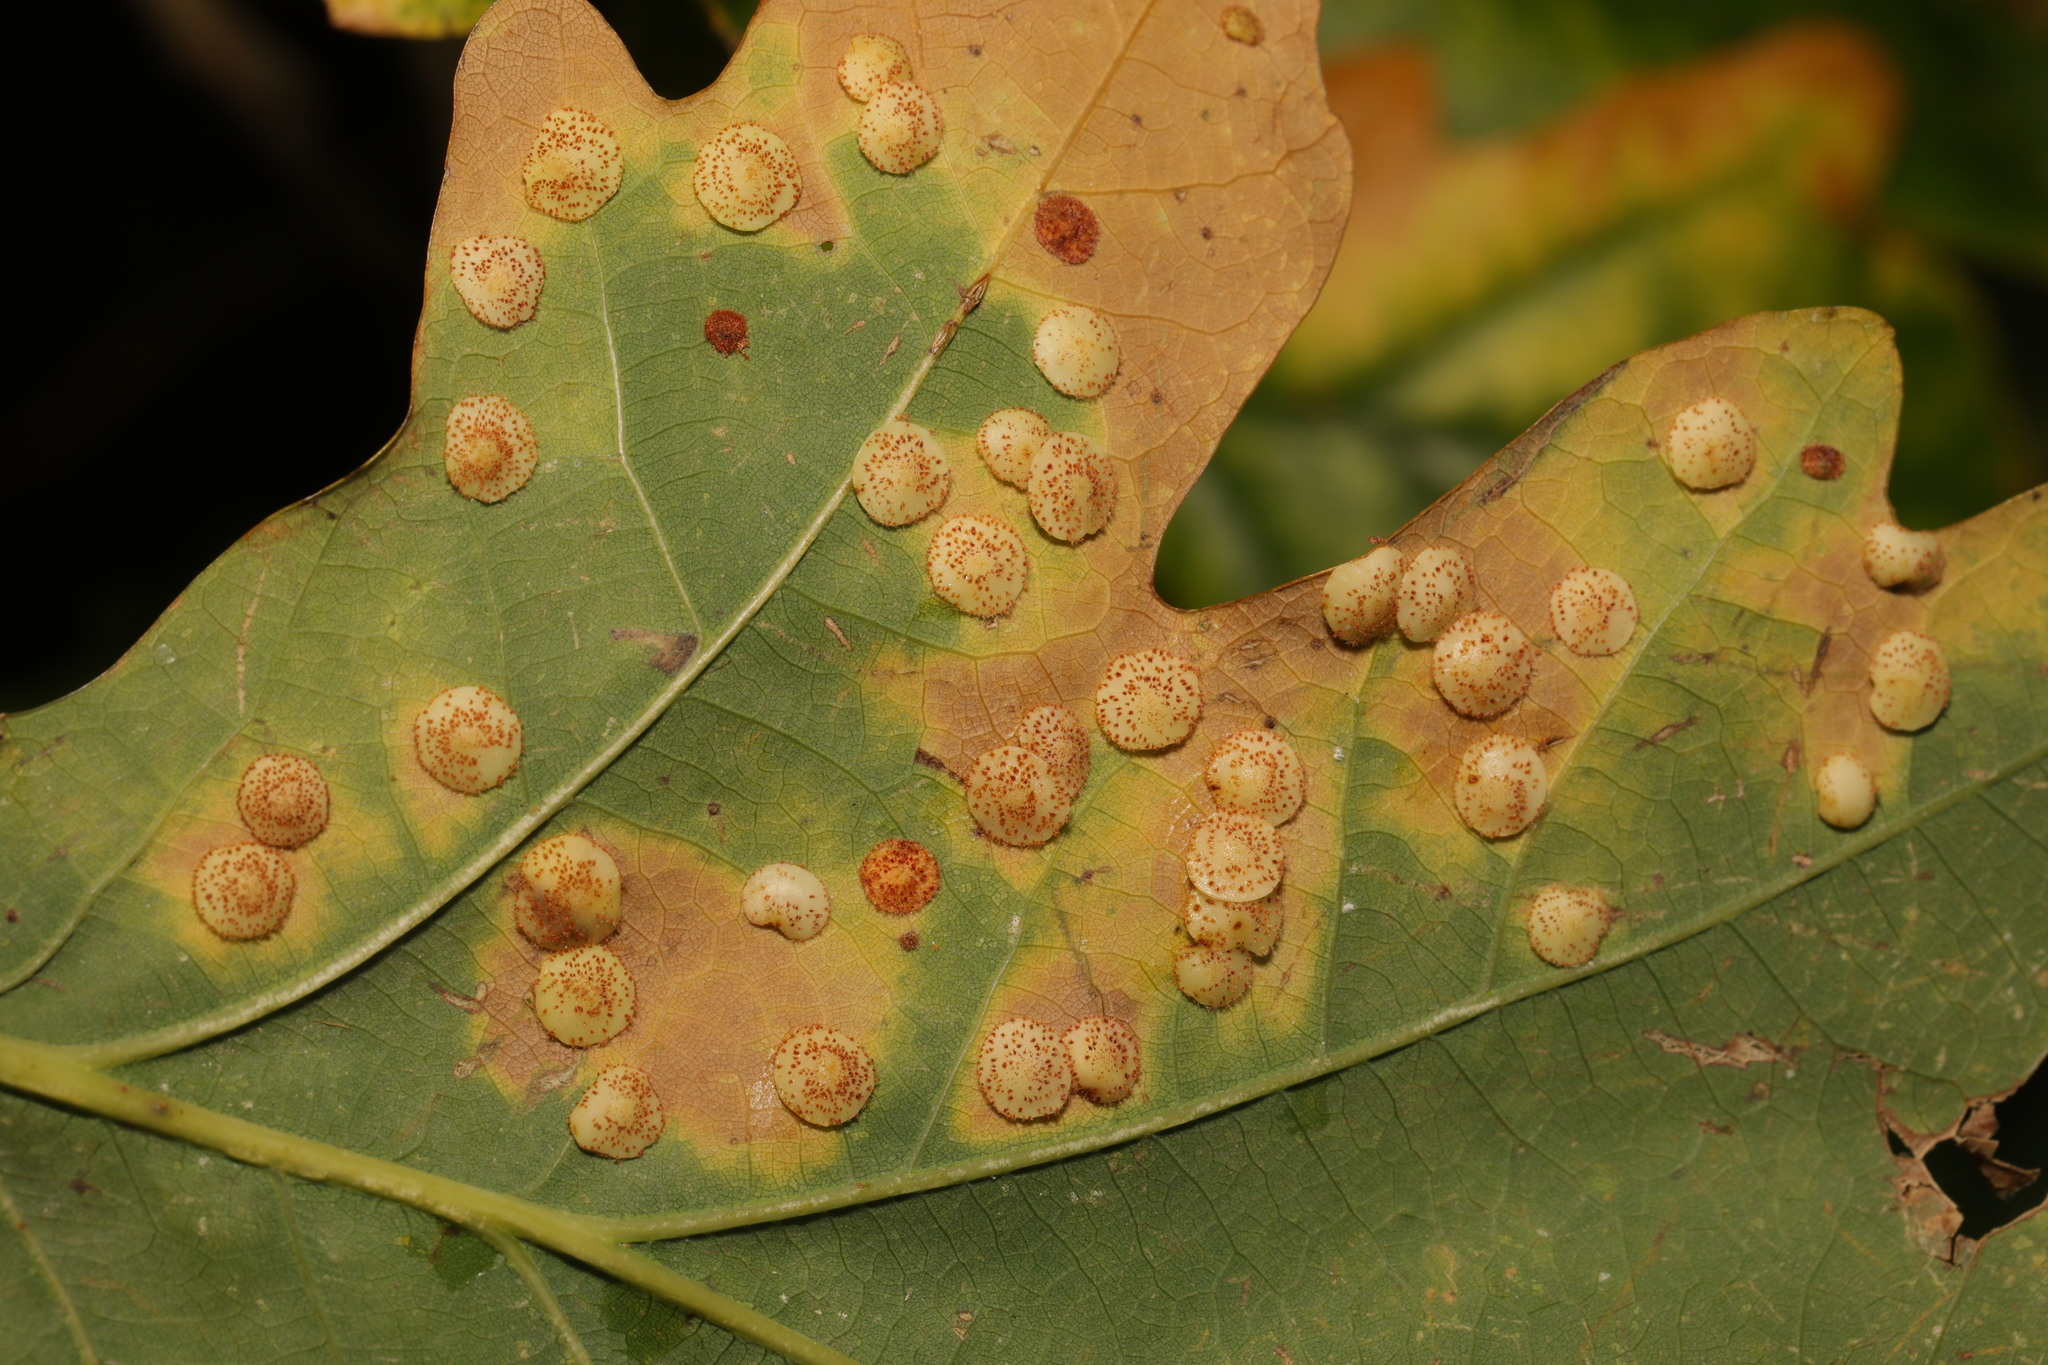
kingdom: Animalia
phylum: Arthropoda
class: Insecta
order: Hymenoptera
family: Cynipidae
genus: Neuroterus
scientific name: Neuroterus quercusbaccarum
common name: Common spangle gall
